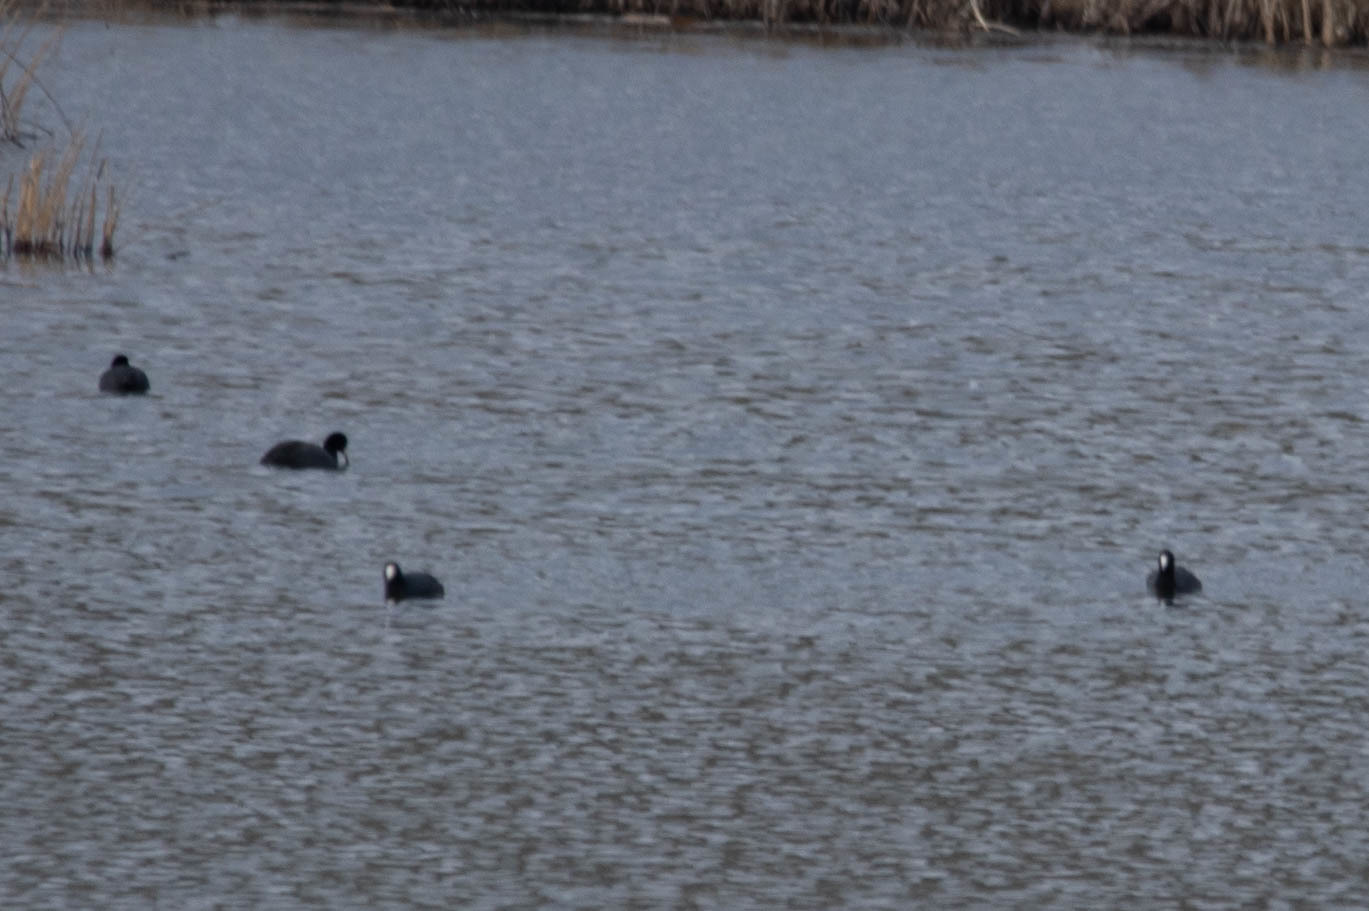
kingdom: Animalia
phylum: Chordata
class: Aves
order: Gruiformes
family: Rallidae
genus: Fulica
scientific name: Fulica americana
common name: American coot
